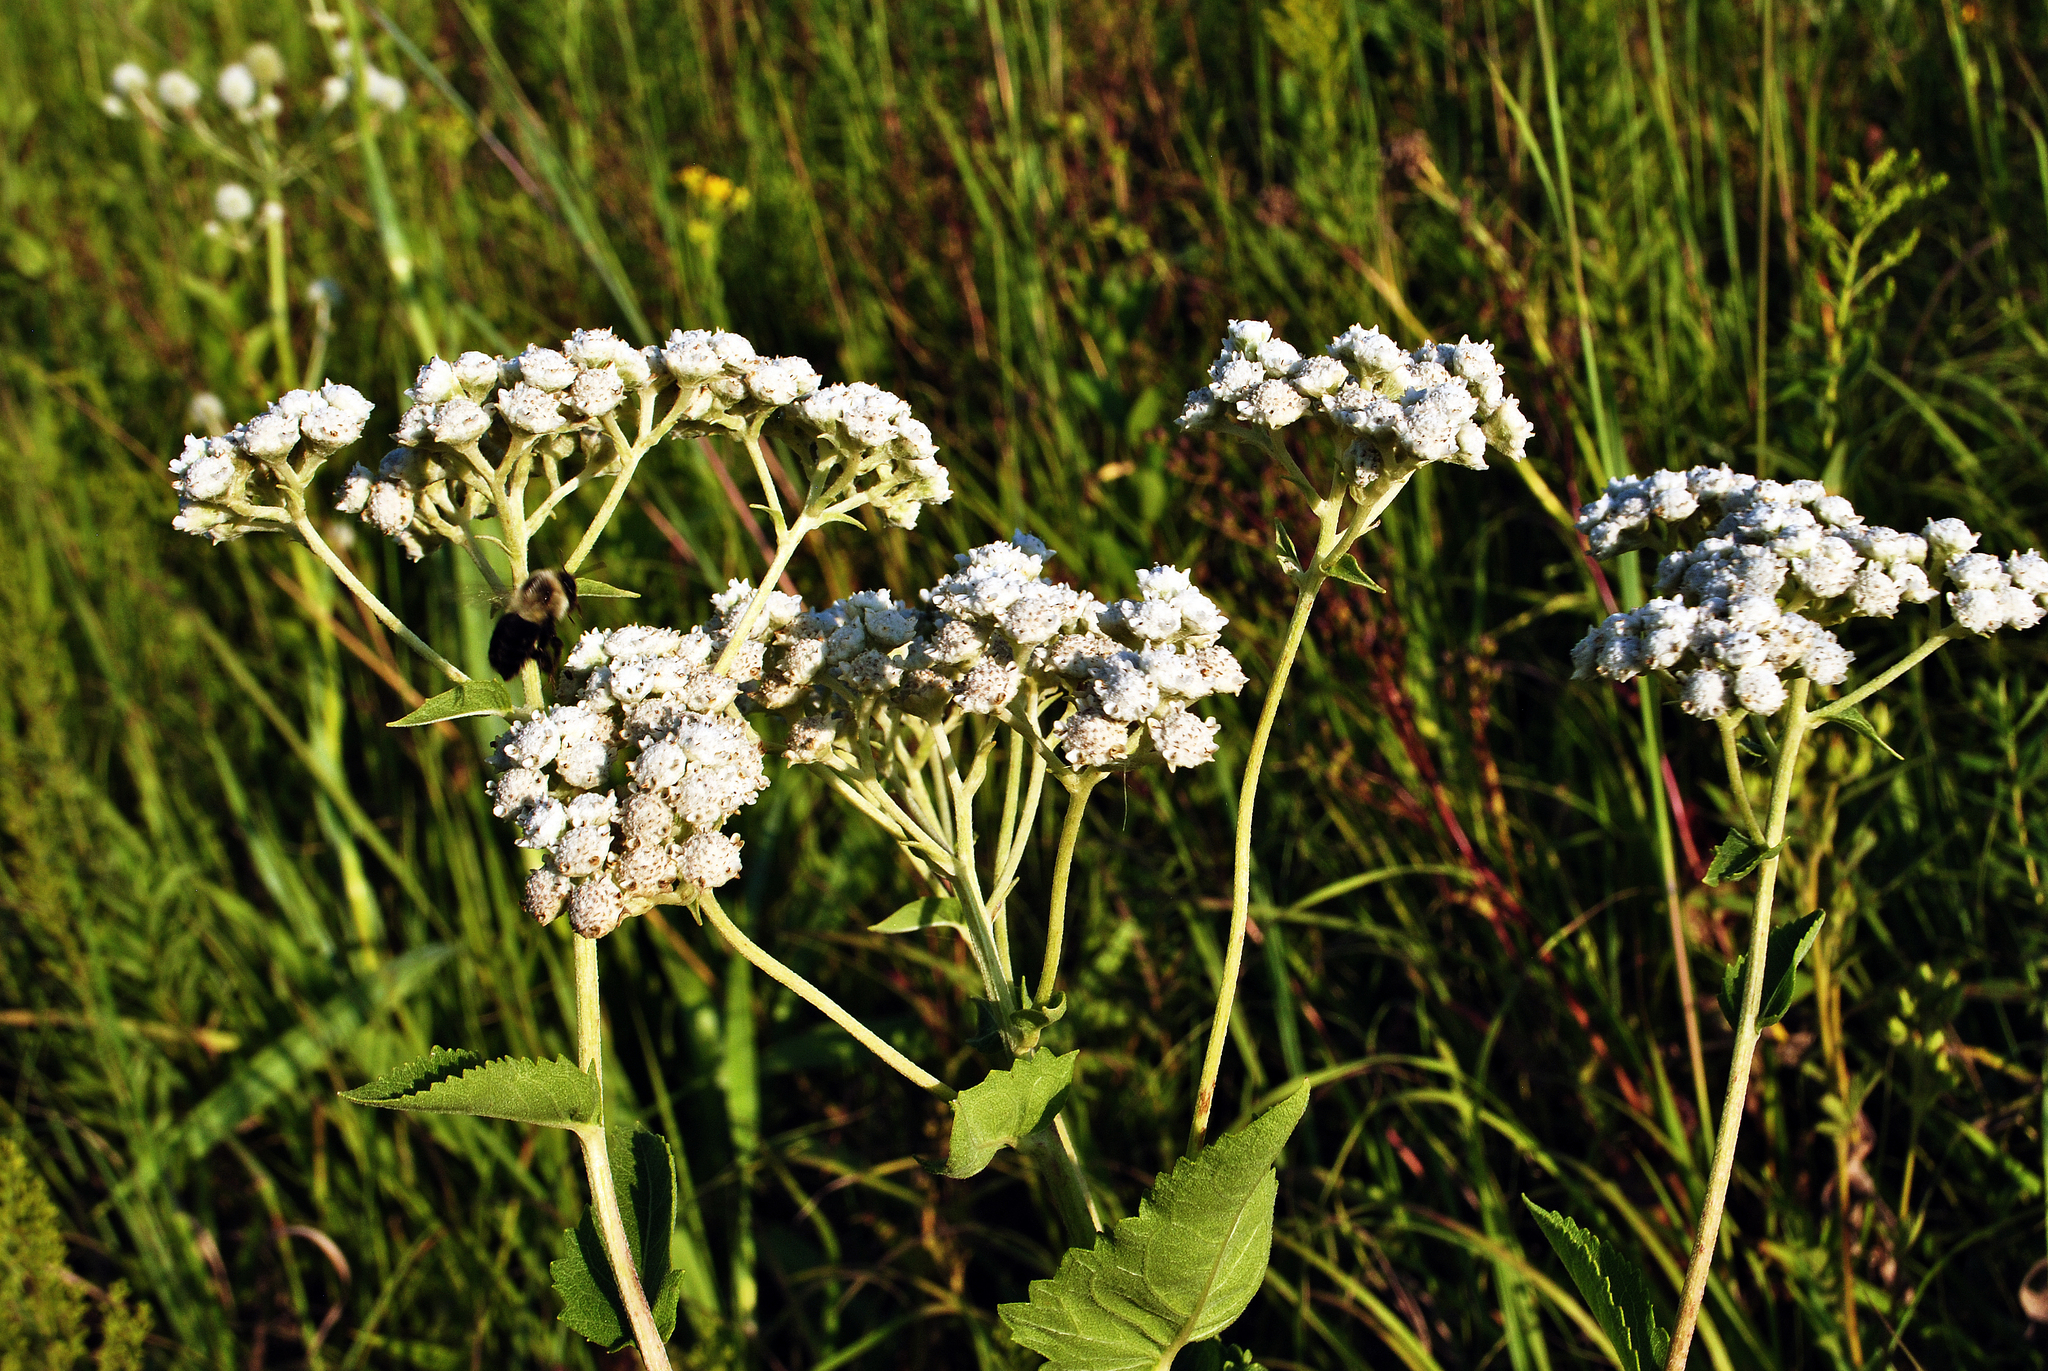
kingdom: Plantae
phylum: Tracheophyta
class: Magnoliopsida
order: Asterales
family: Asteraceae
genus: Parthenium
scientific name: Parthenium integrifolium
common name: American feverfew
